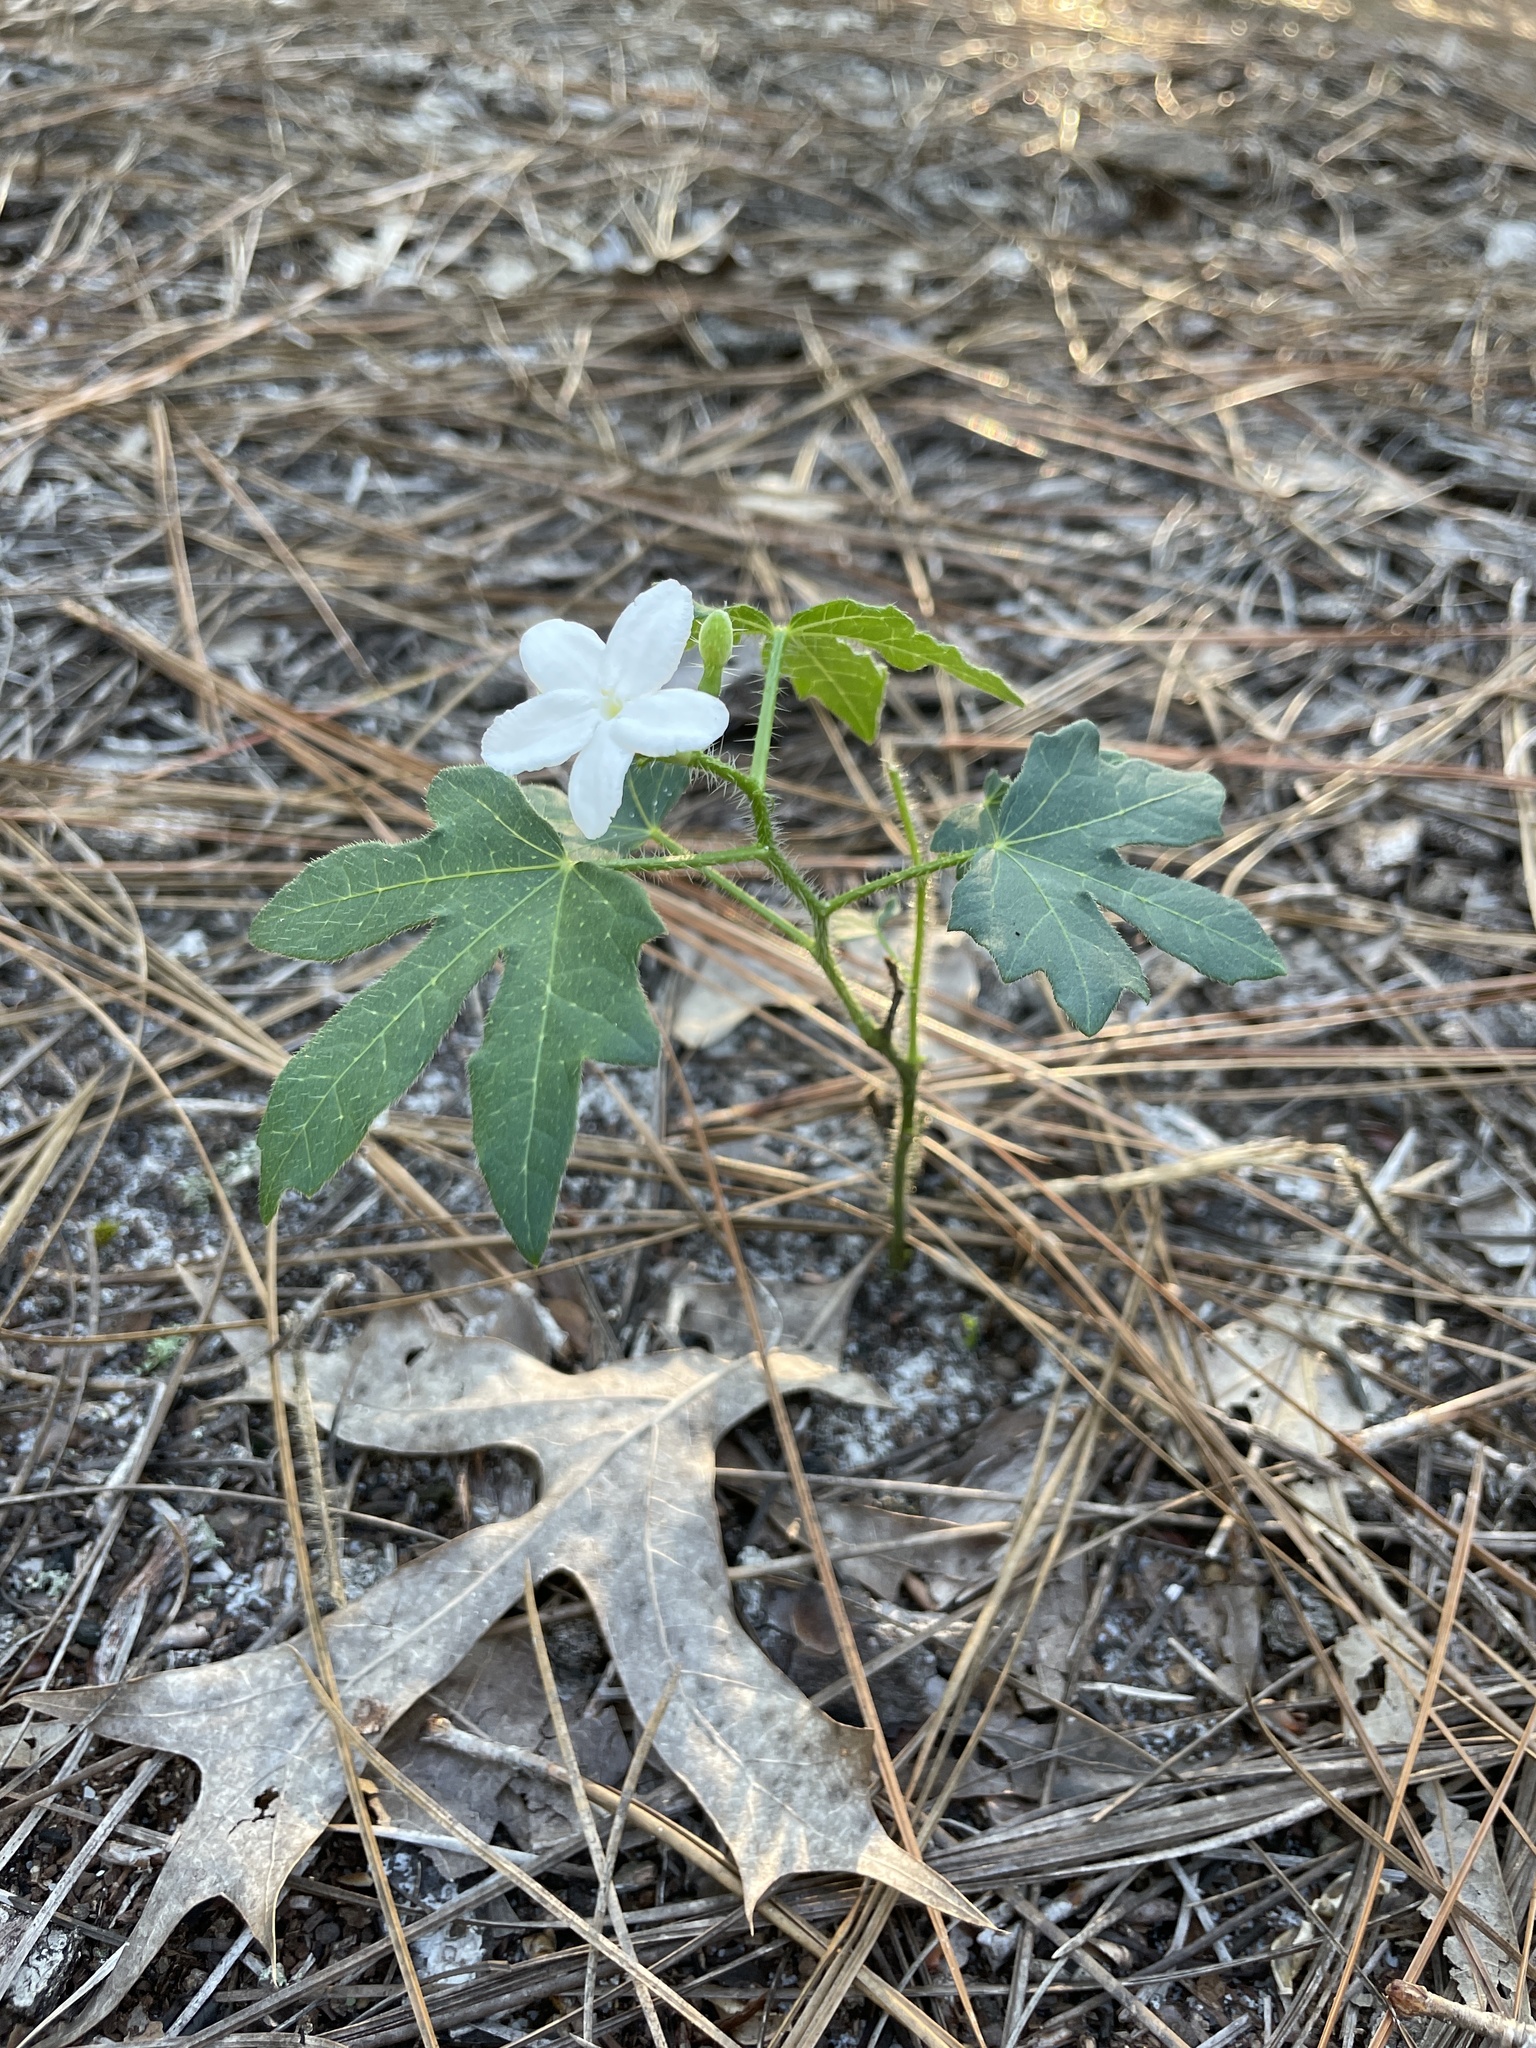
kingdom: Plantae
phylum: Tracheophyta
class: Magnoliopsida
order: Malpighiales
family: Euphorbiaceae
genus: Cnidoscolus
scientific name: Cnidoscolus stimulosus
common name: Bull-nettle
